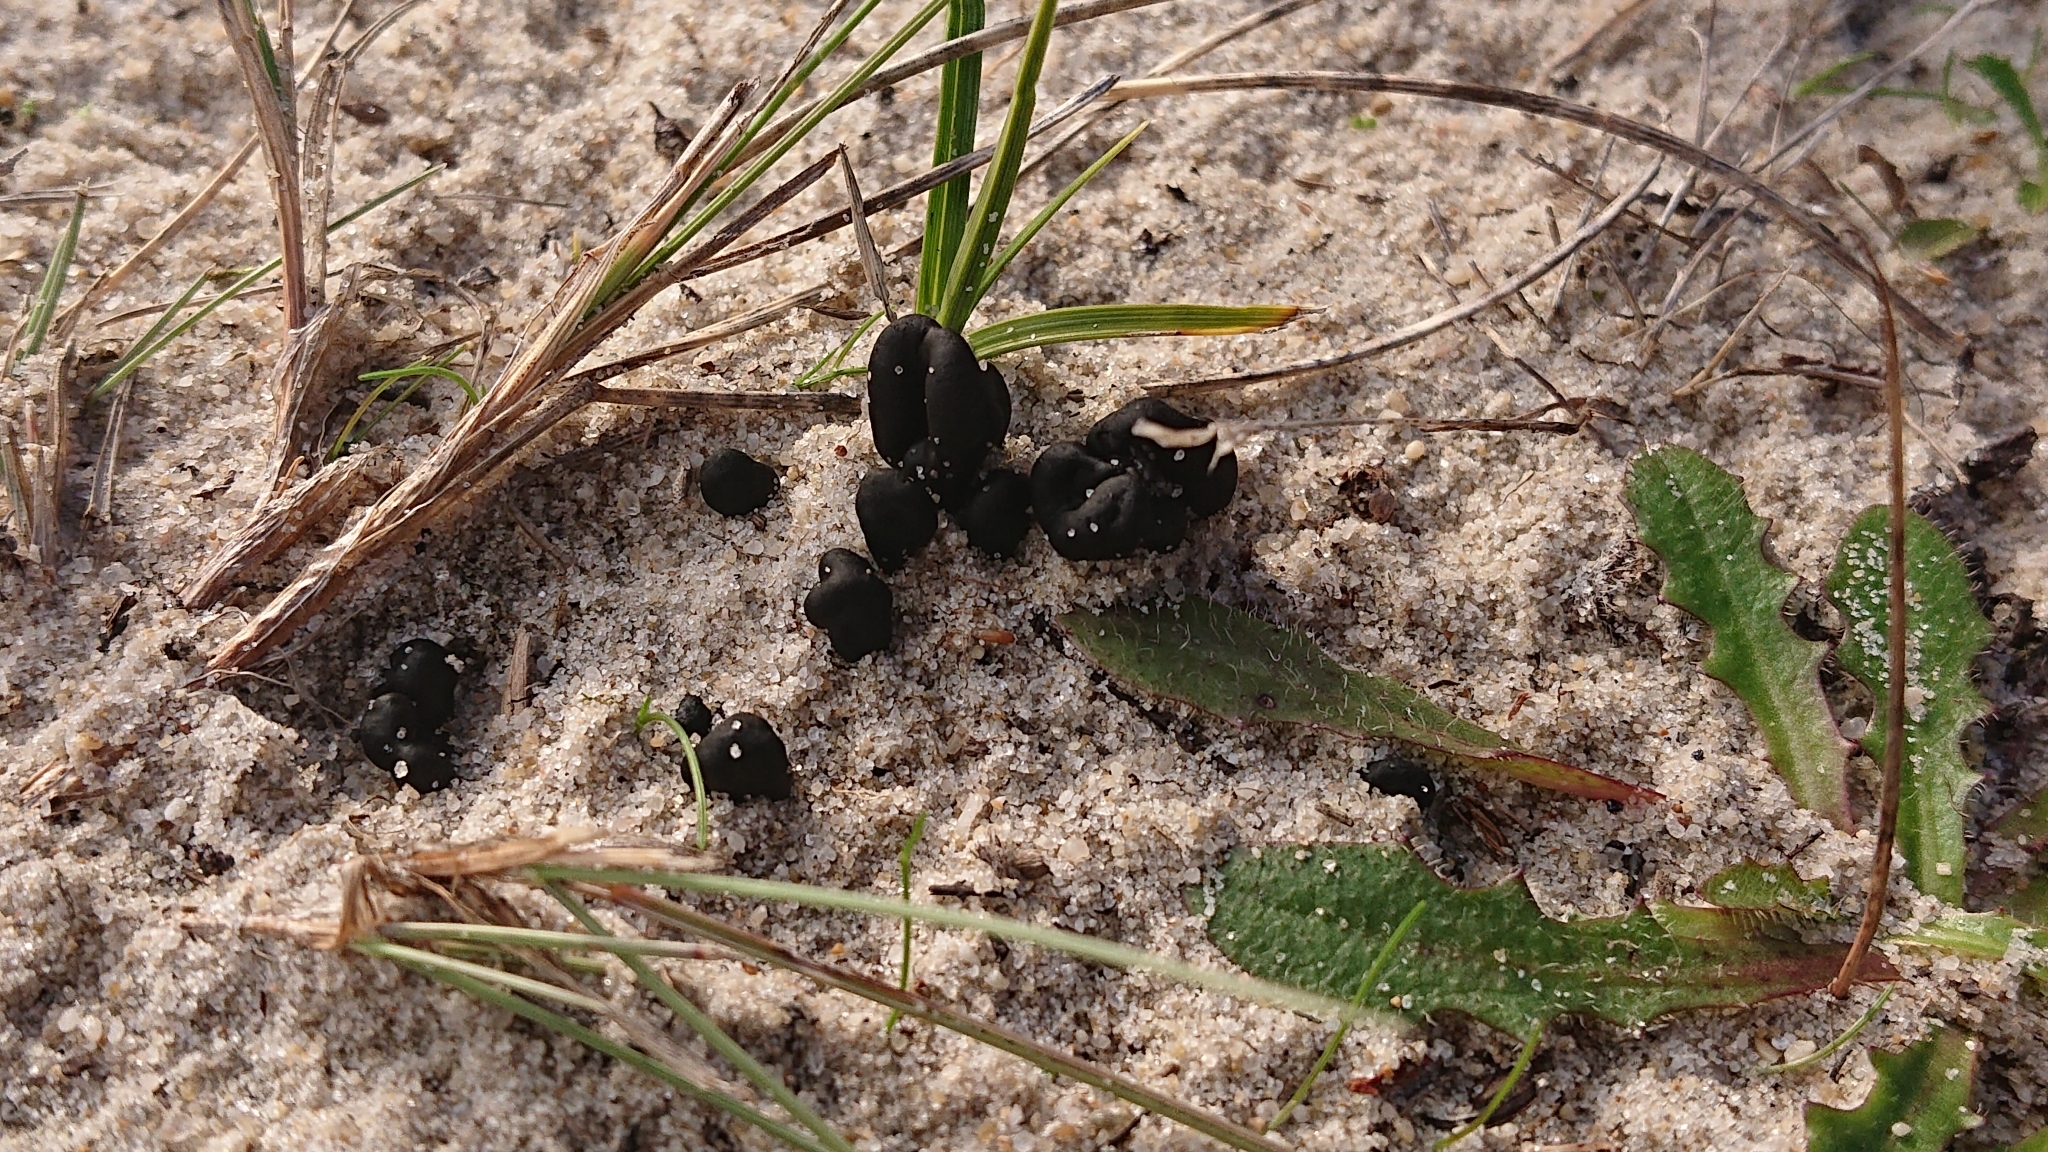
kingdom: Fungi
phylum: Ascomycota
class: Geoglossomycetes
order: Geoglossales
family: Geoglossaceae
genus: Sabuloglossum
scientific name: Sabuloglossum arenarium
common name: Sandy earthtongue
